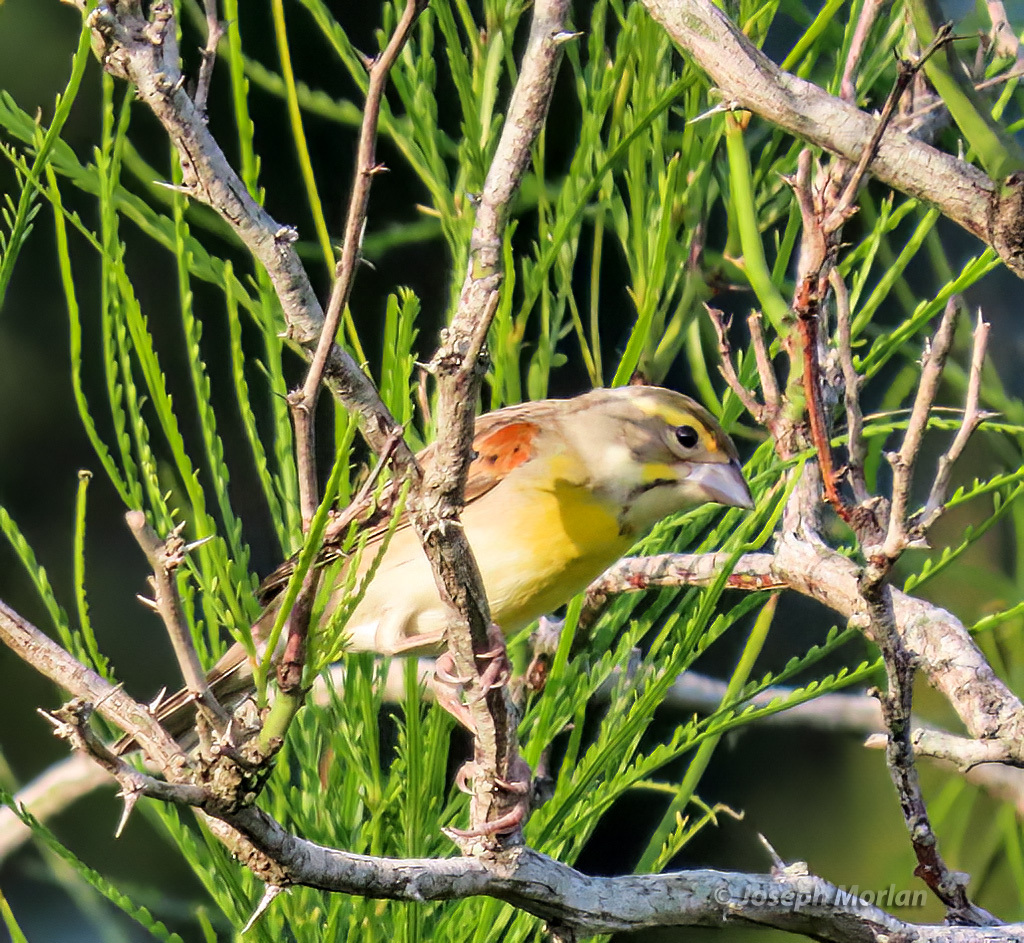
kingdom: Animalia
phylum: Chordata
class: Aves
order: Passeriformes
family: Cardinalidae
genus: Spiza
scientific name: Spiza americana
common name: Dickcissel
